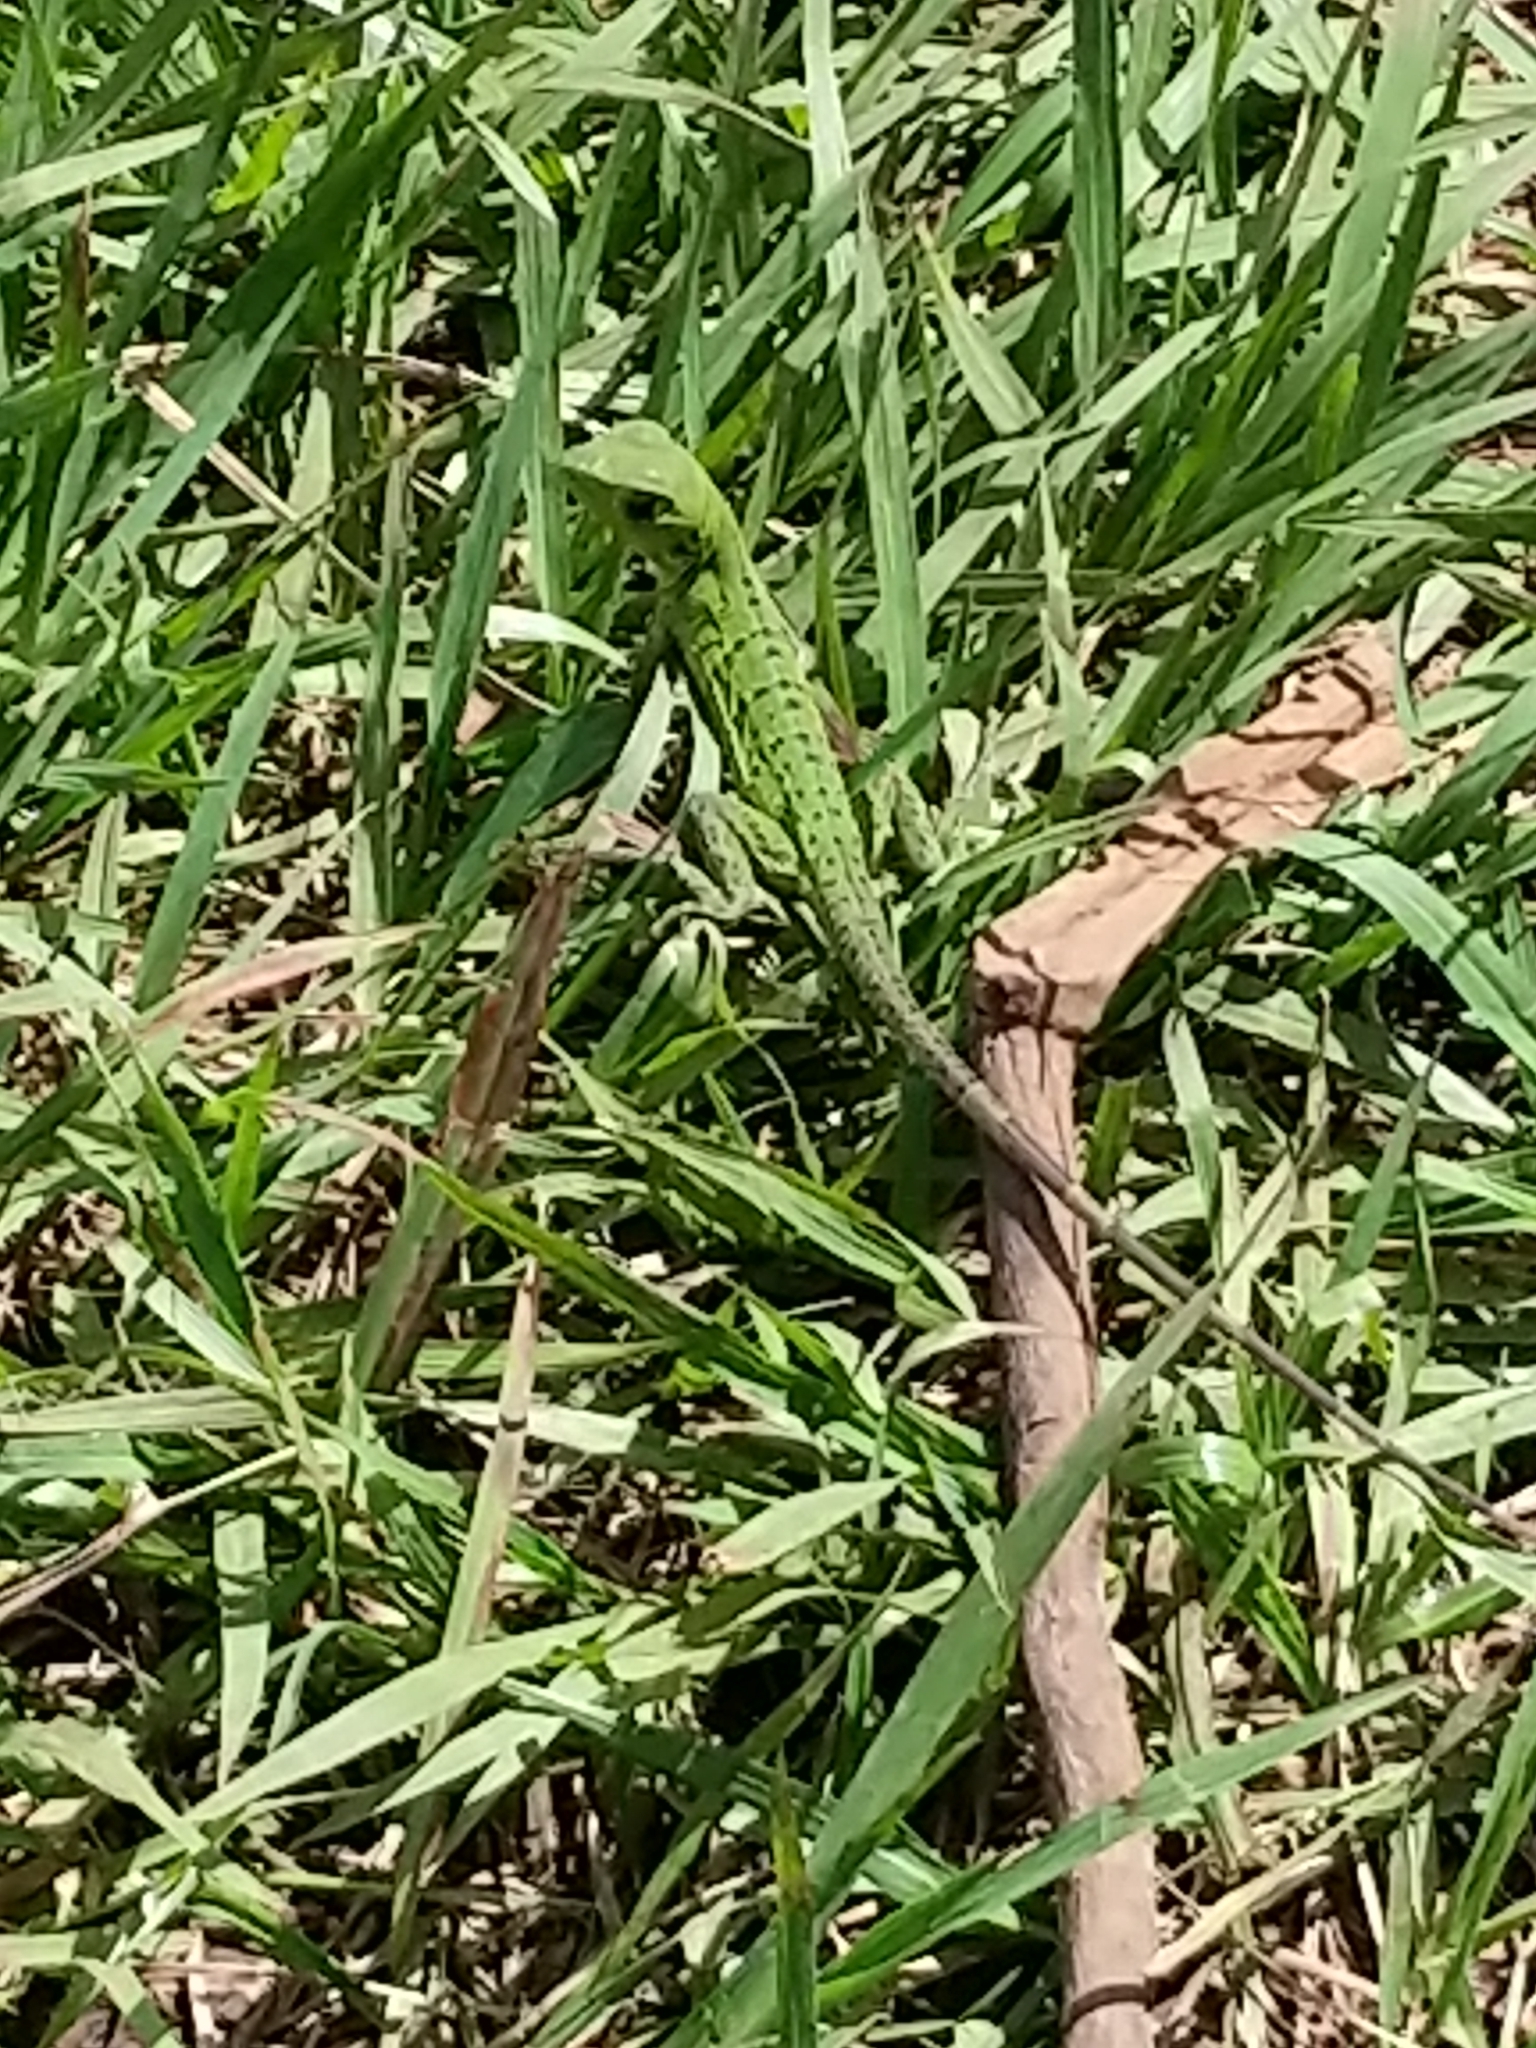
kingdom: Animalia
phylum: Chordata
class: Squamata
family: Iguanidae
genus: Ctenosaura
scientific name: Ctenosaura similis
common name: Black spiny-tailed iguana
